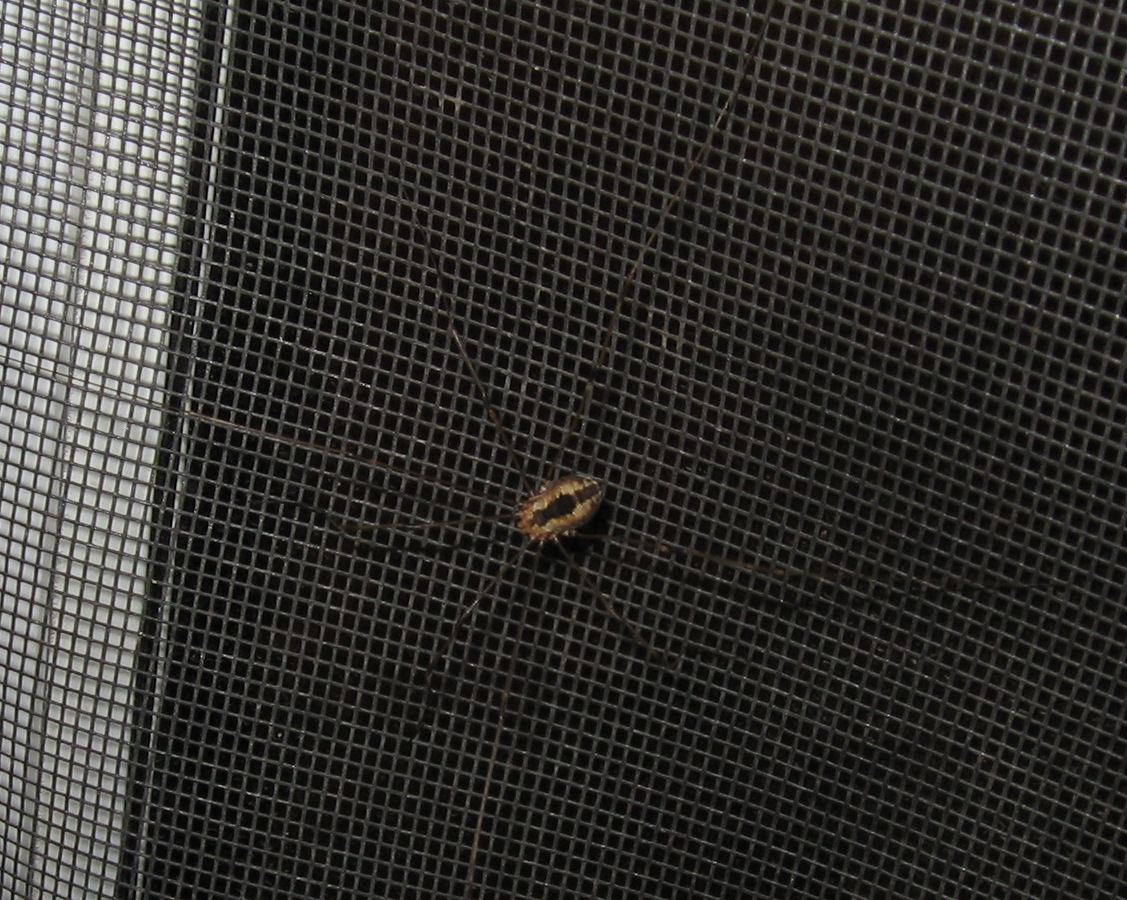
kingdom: Animalia
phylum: Arthropoda
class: Arachnida
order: Opiliones
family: Sclerosomatidae
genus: Leiobunum
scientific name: Leiobunum vittatum
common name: Eastern harvestman
